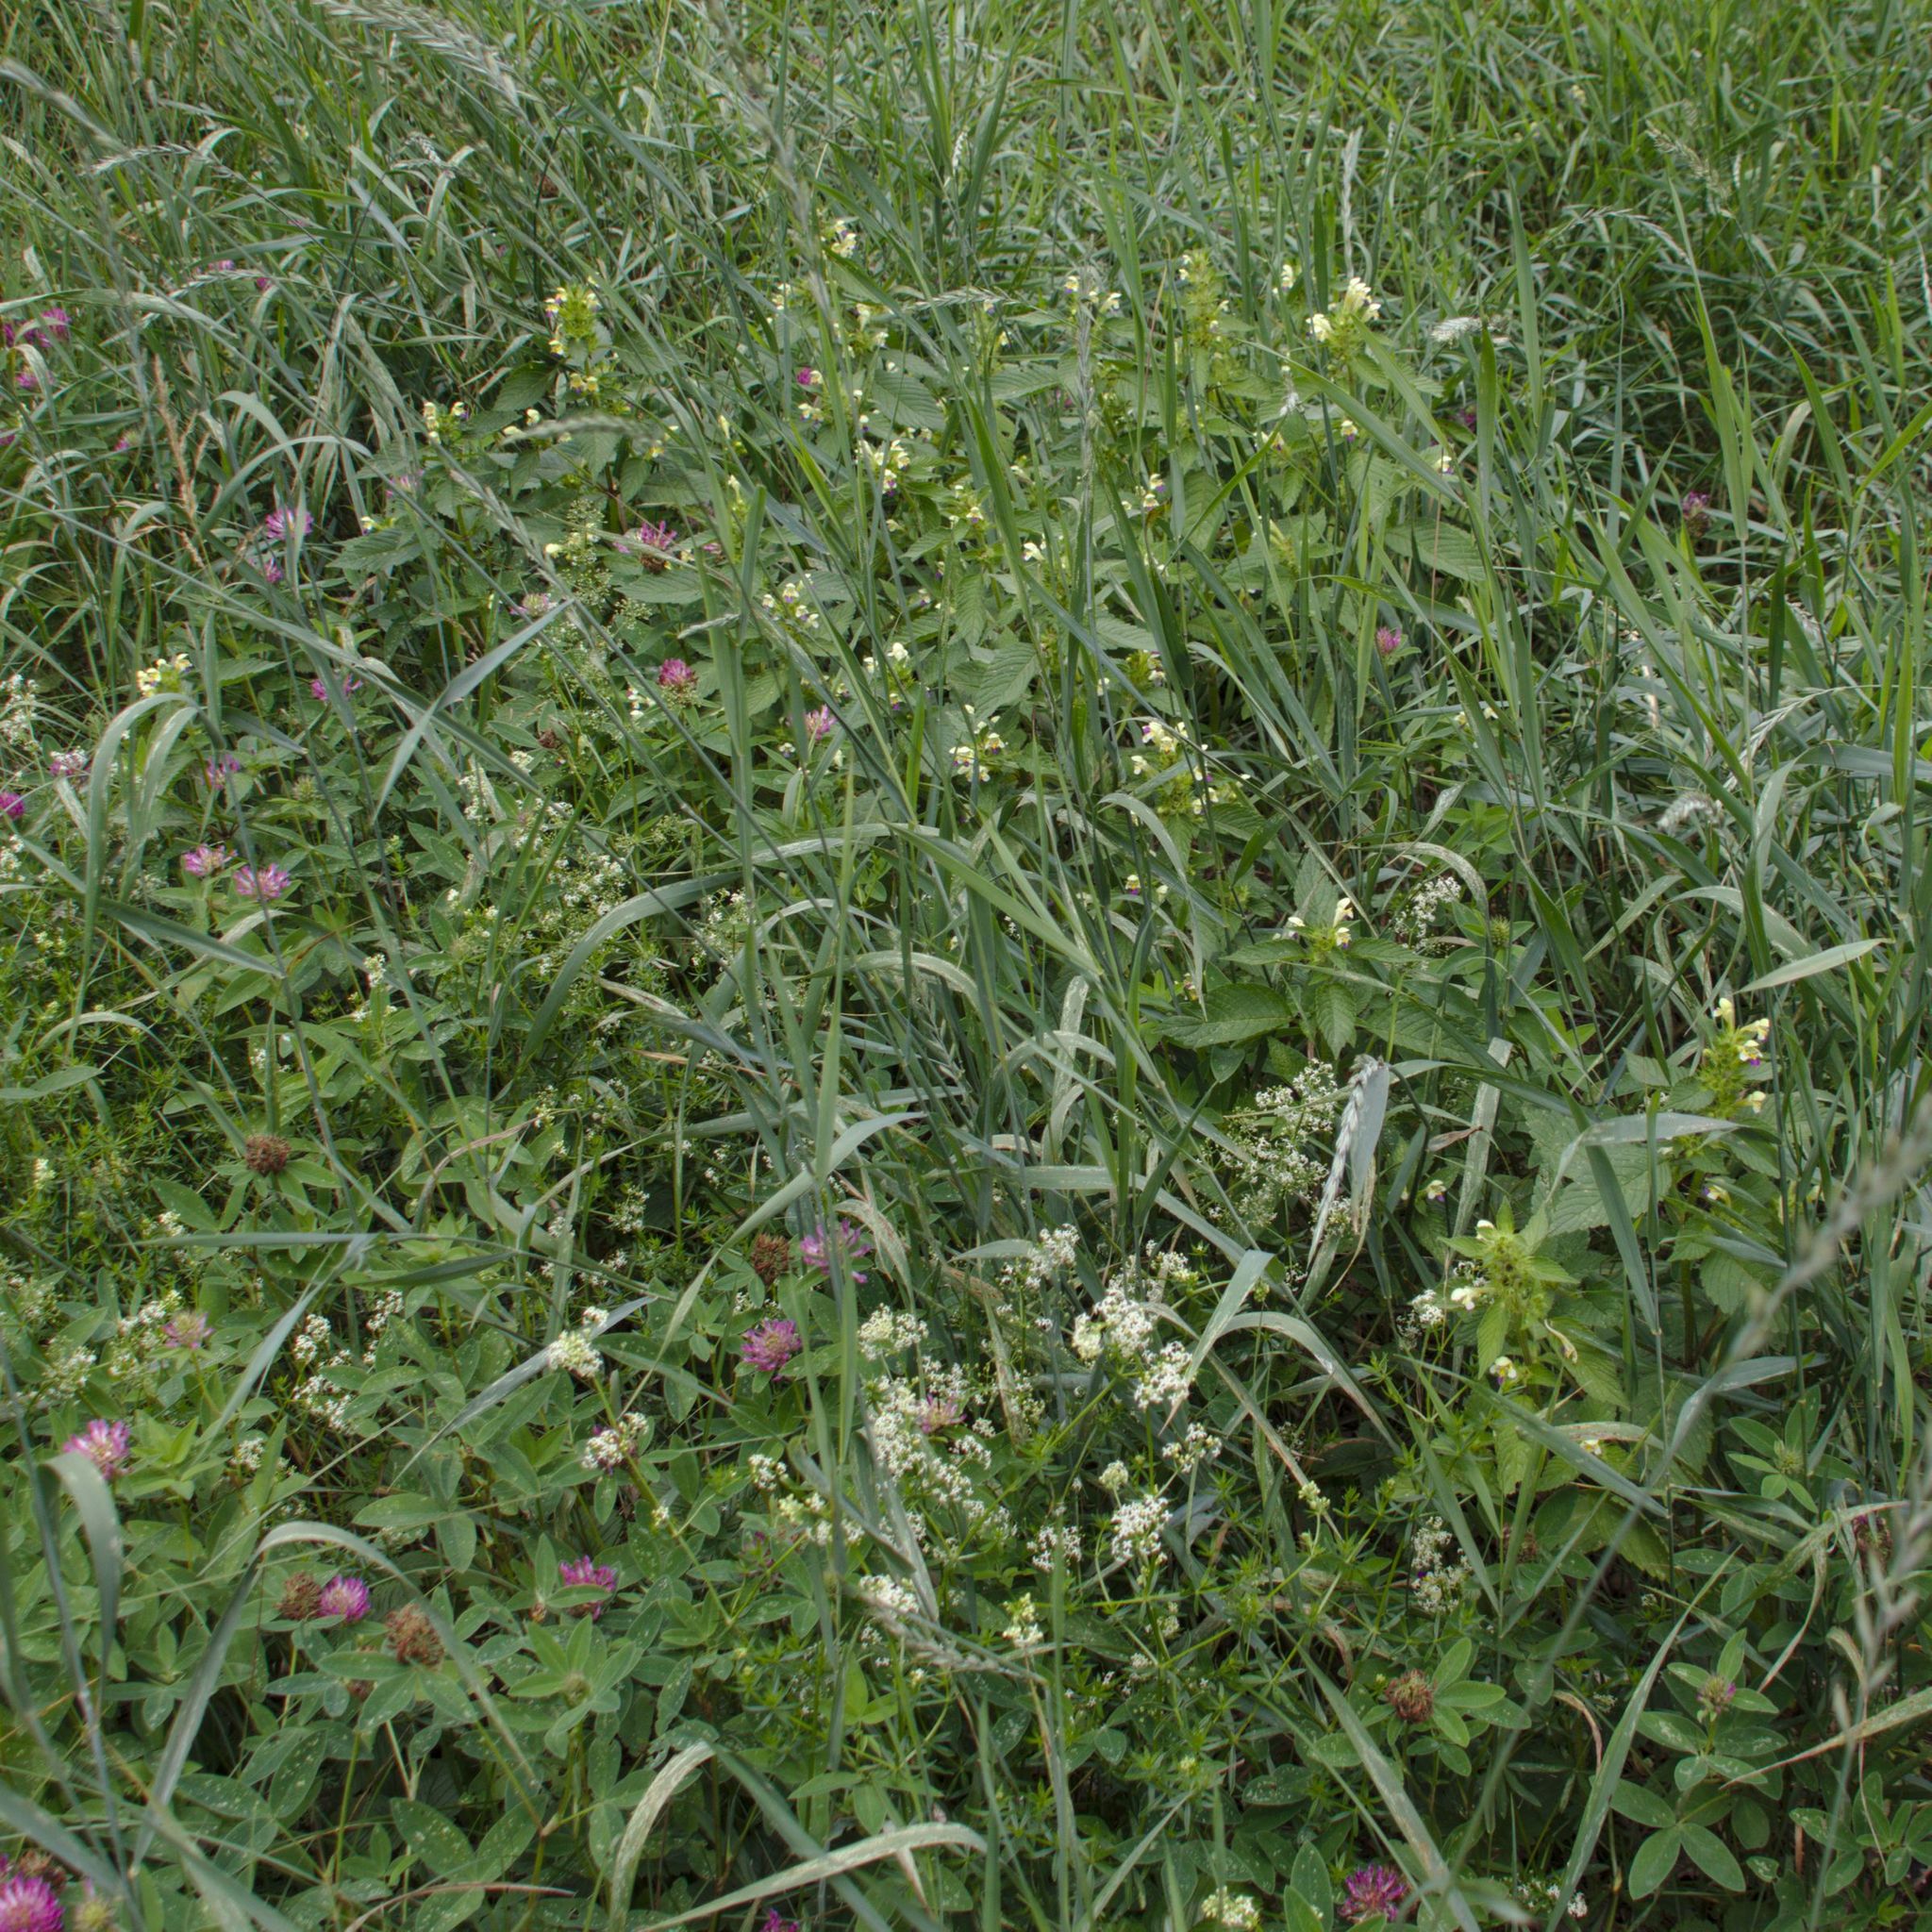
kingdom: Plantae
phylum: Tracheophyta
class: Magnoliopsida
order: Lamiales
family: Lamiaceae
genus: Galeopsis
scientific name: Galeopsis speciosa
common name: Large-flowered hemp-nettle
